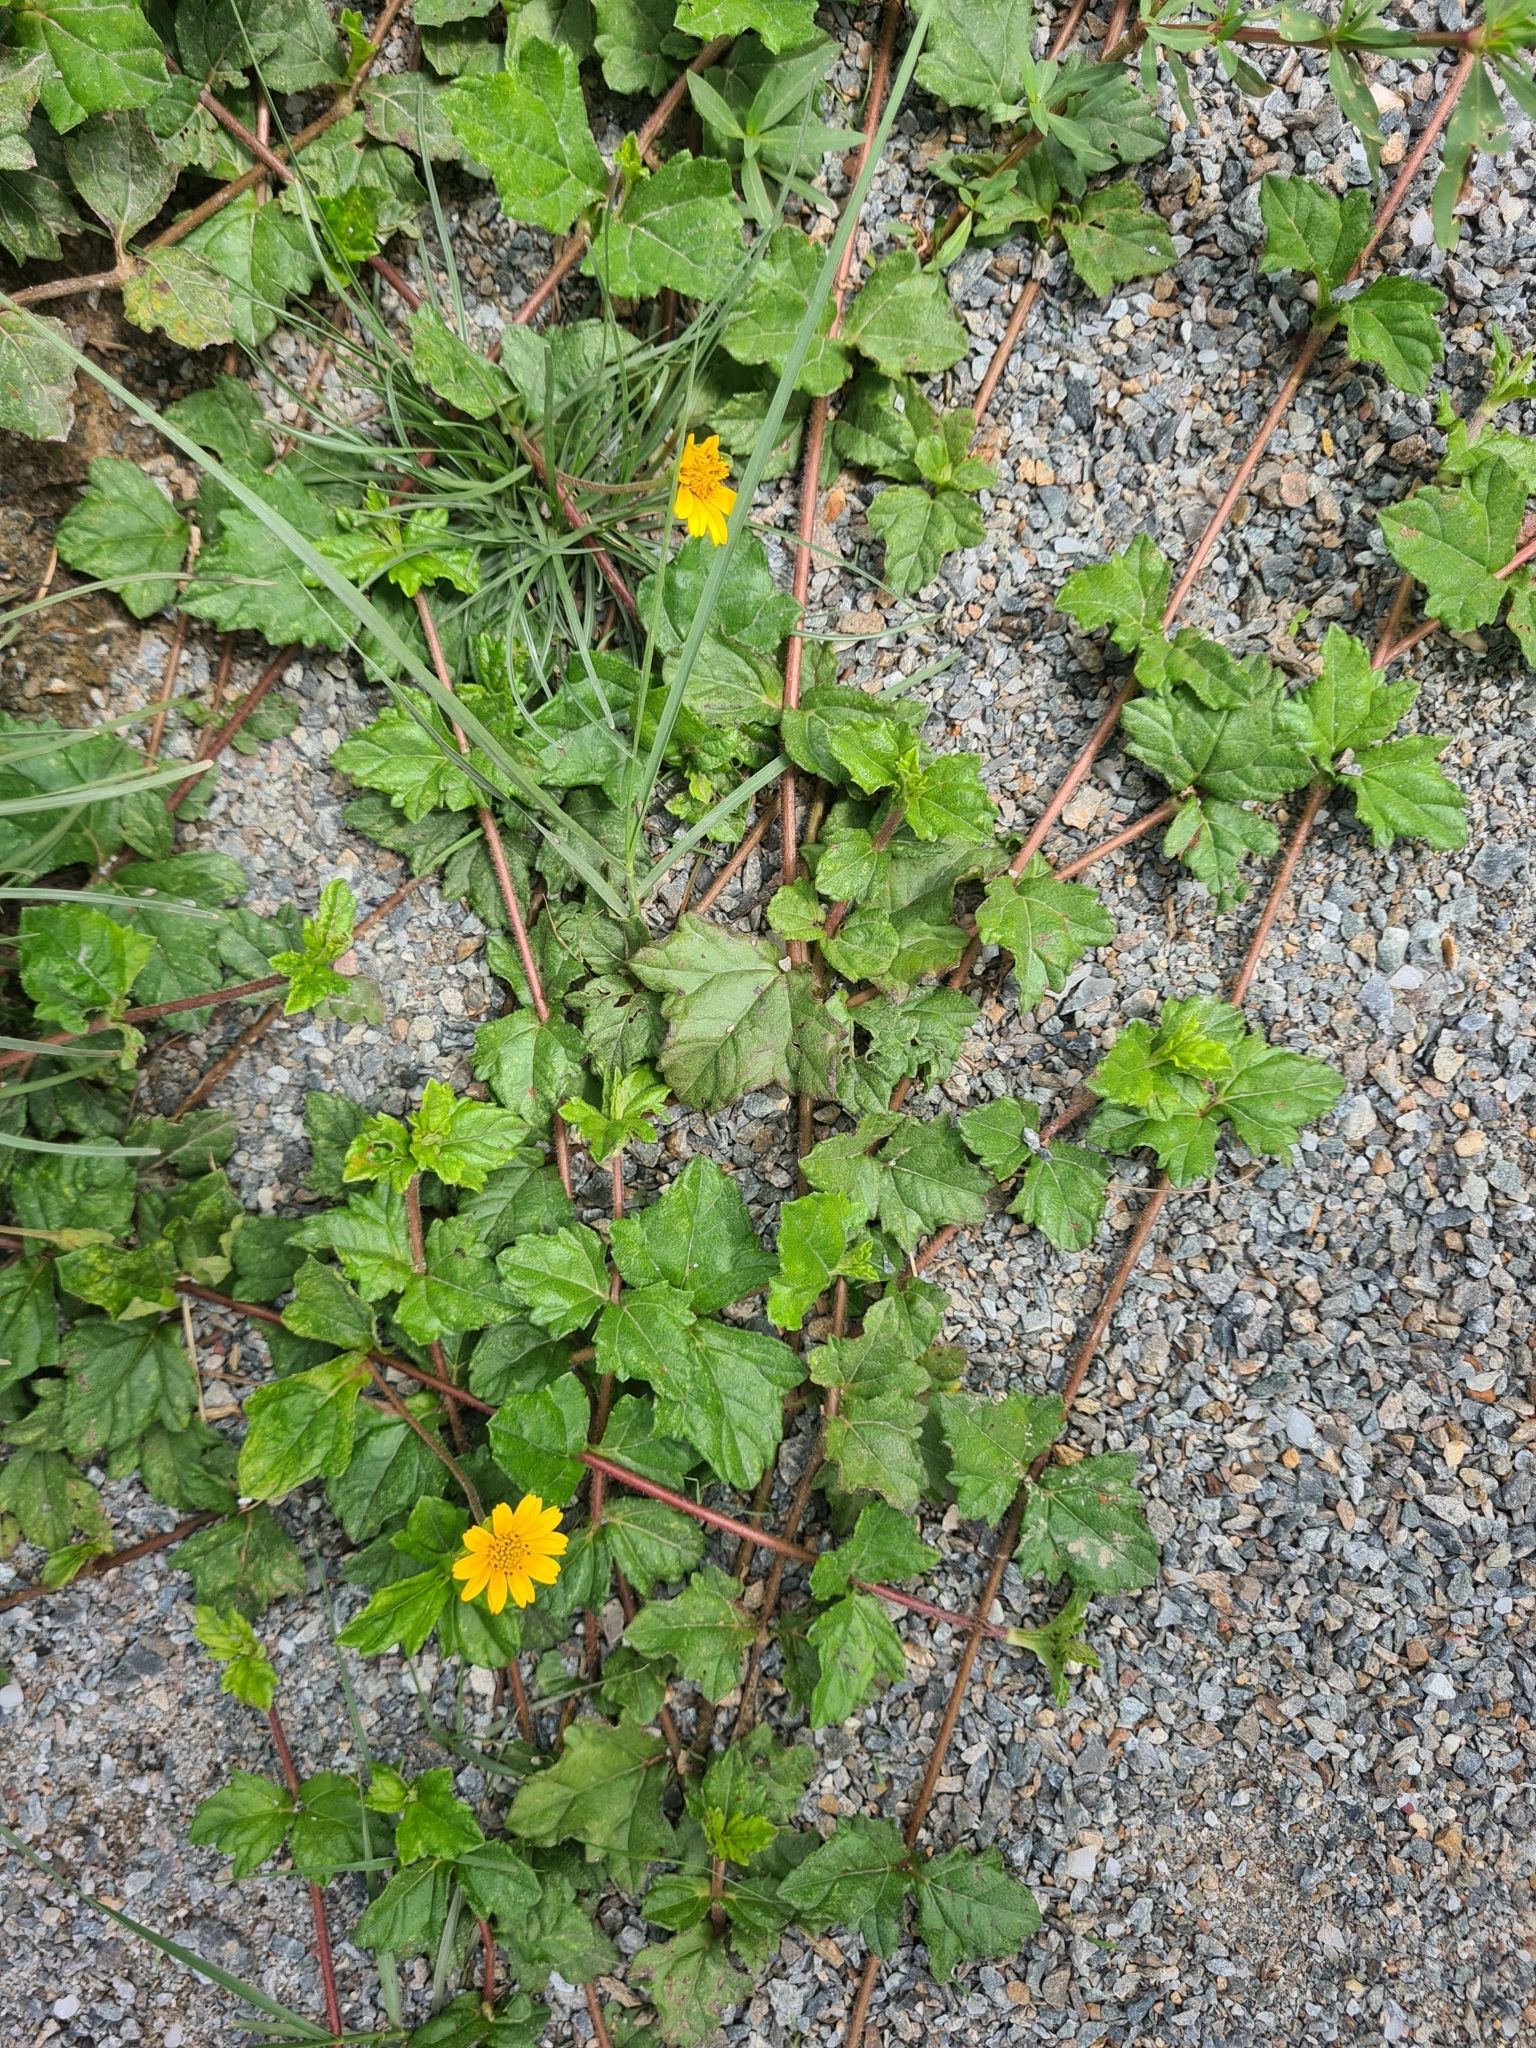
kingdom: Plantae
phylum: Tracheophyta
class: Magnoliopsida
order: Asterales
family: Asteraceae
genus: Sphagneticola
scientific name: Sphagneticola trilobata
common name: Bay biscayne creeping-oxeye
